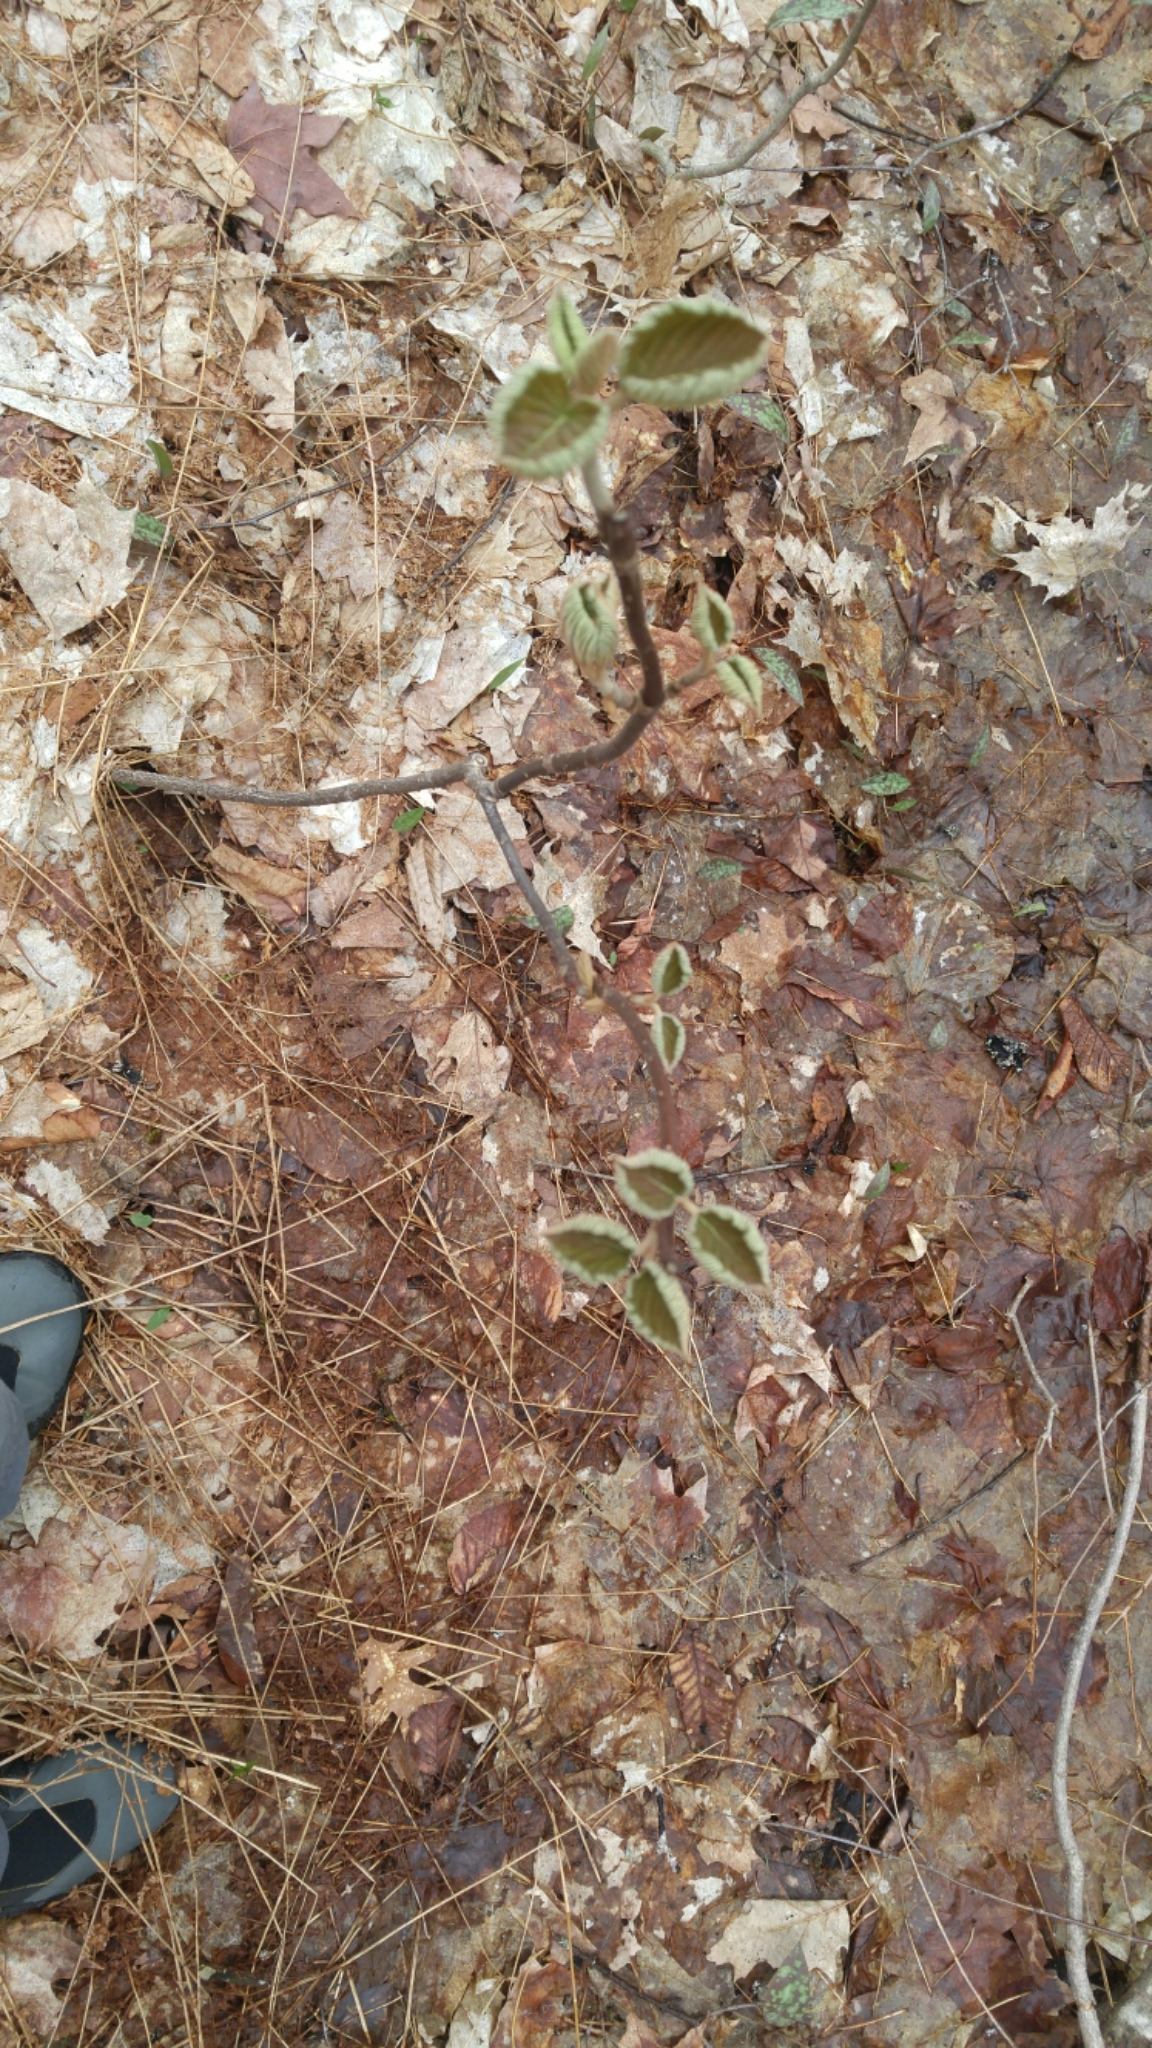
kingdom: Plantae
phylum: Tracheophyta
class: Magnoliopsida
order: Dipsacales
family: Viburnaceae
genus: Viburnum
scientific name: Viburnum lantanoides
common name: Hobblebush
